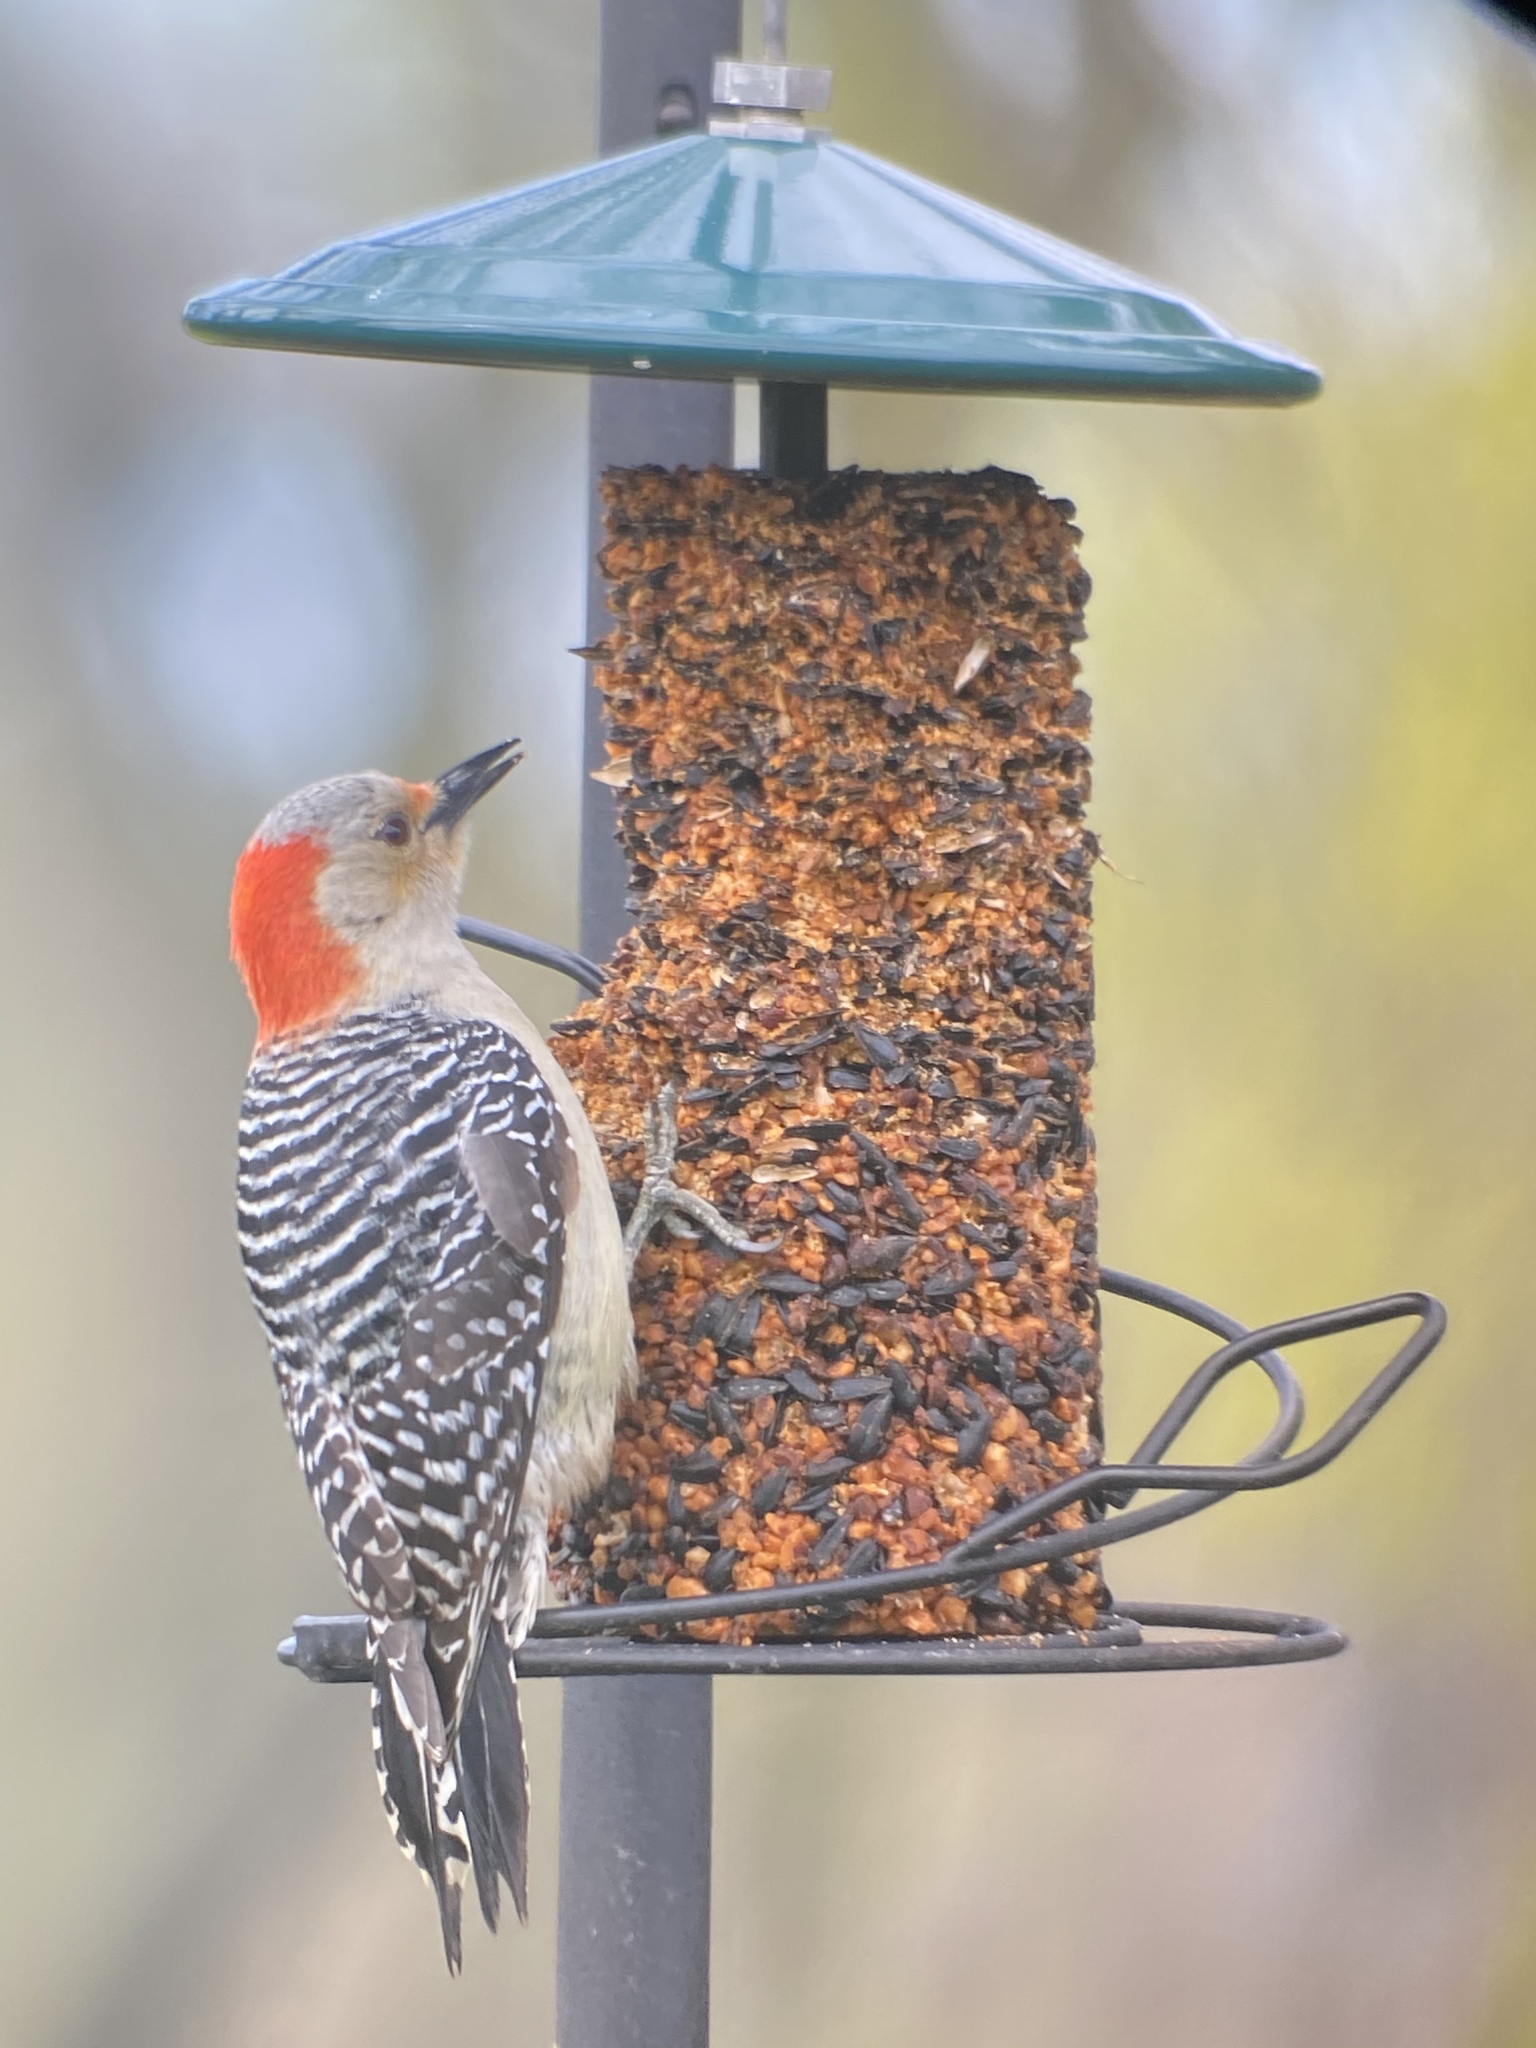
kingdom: Animalia
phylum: Chordata
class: Aves
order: Piciformes
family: Picidae
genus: Melanerpes
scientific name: Melanerpes carolinus
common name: Red-bellied woodpecker
